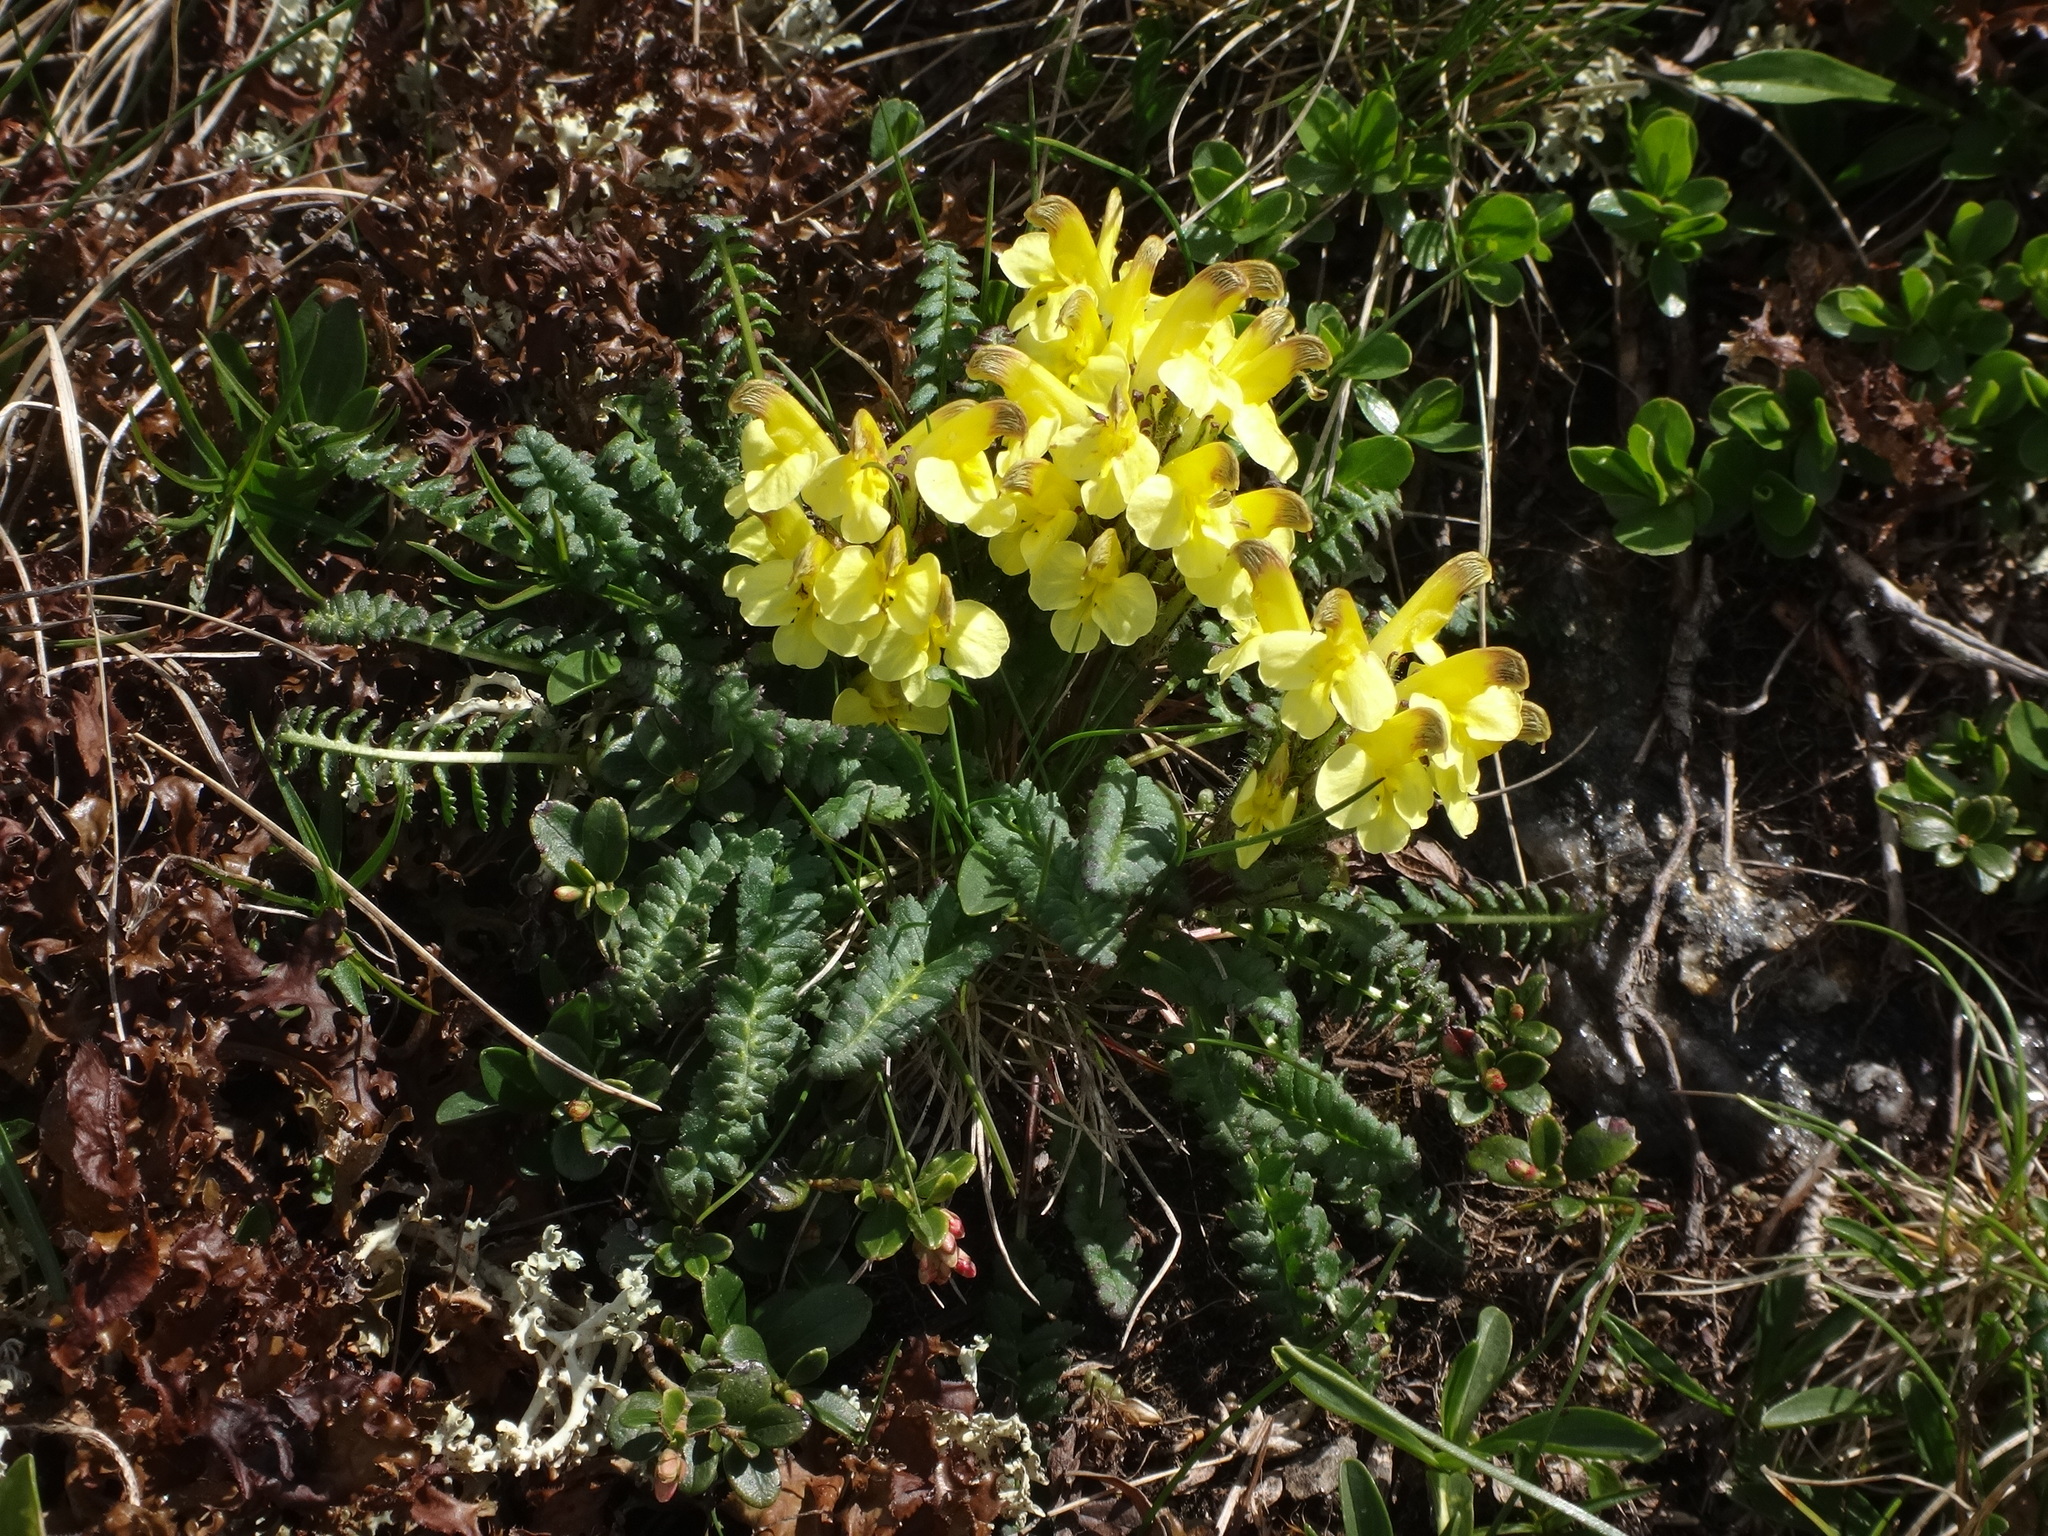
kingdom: Plantae
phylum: Tracheophyta
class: Magnoliopsida
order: Lamiales
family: Orobanchaceae
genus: Pedicularis
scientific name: Pedicularis oederi
